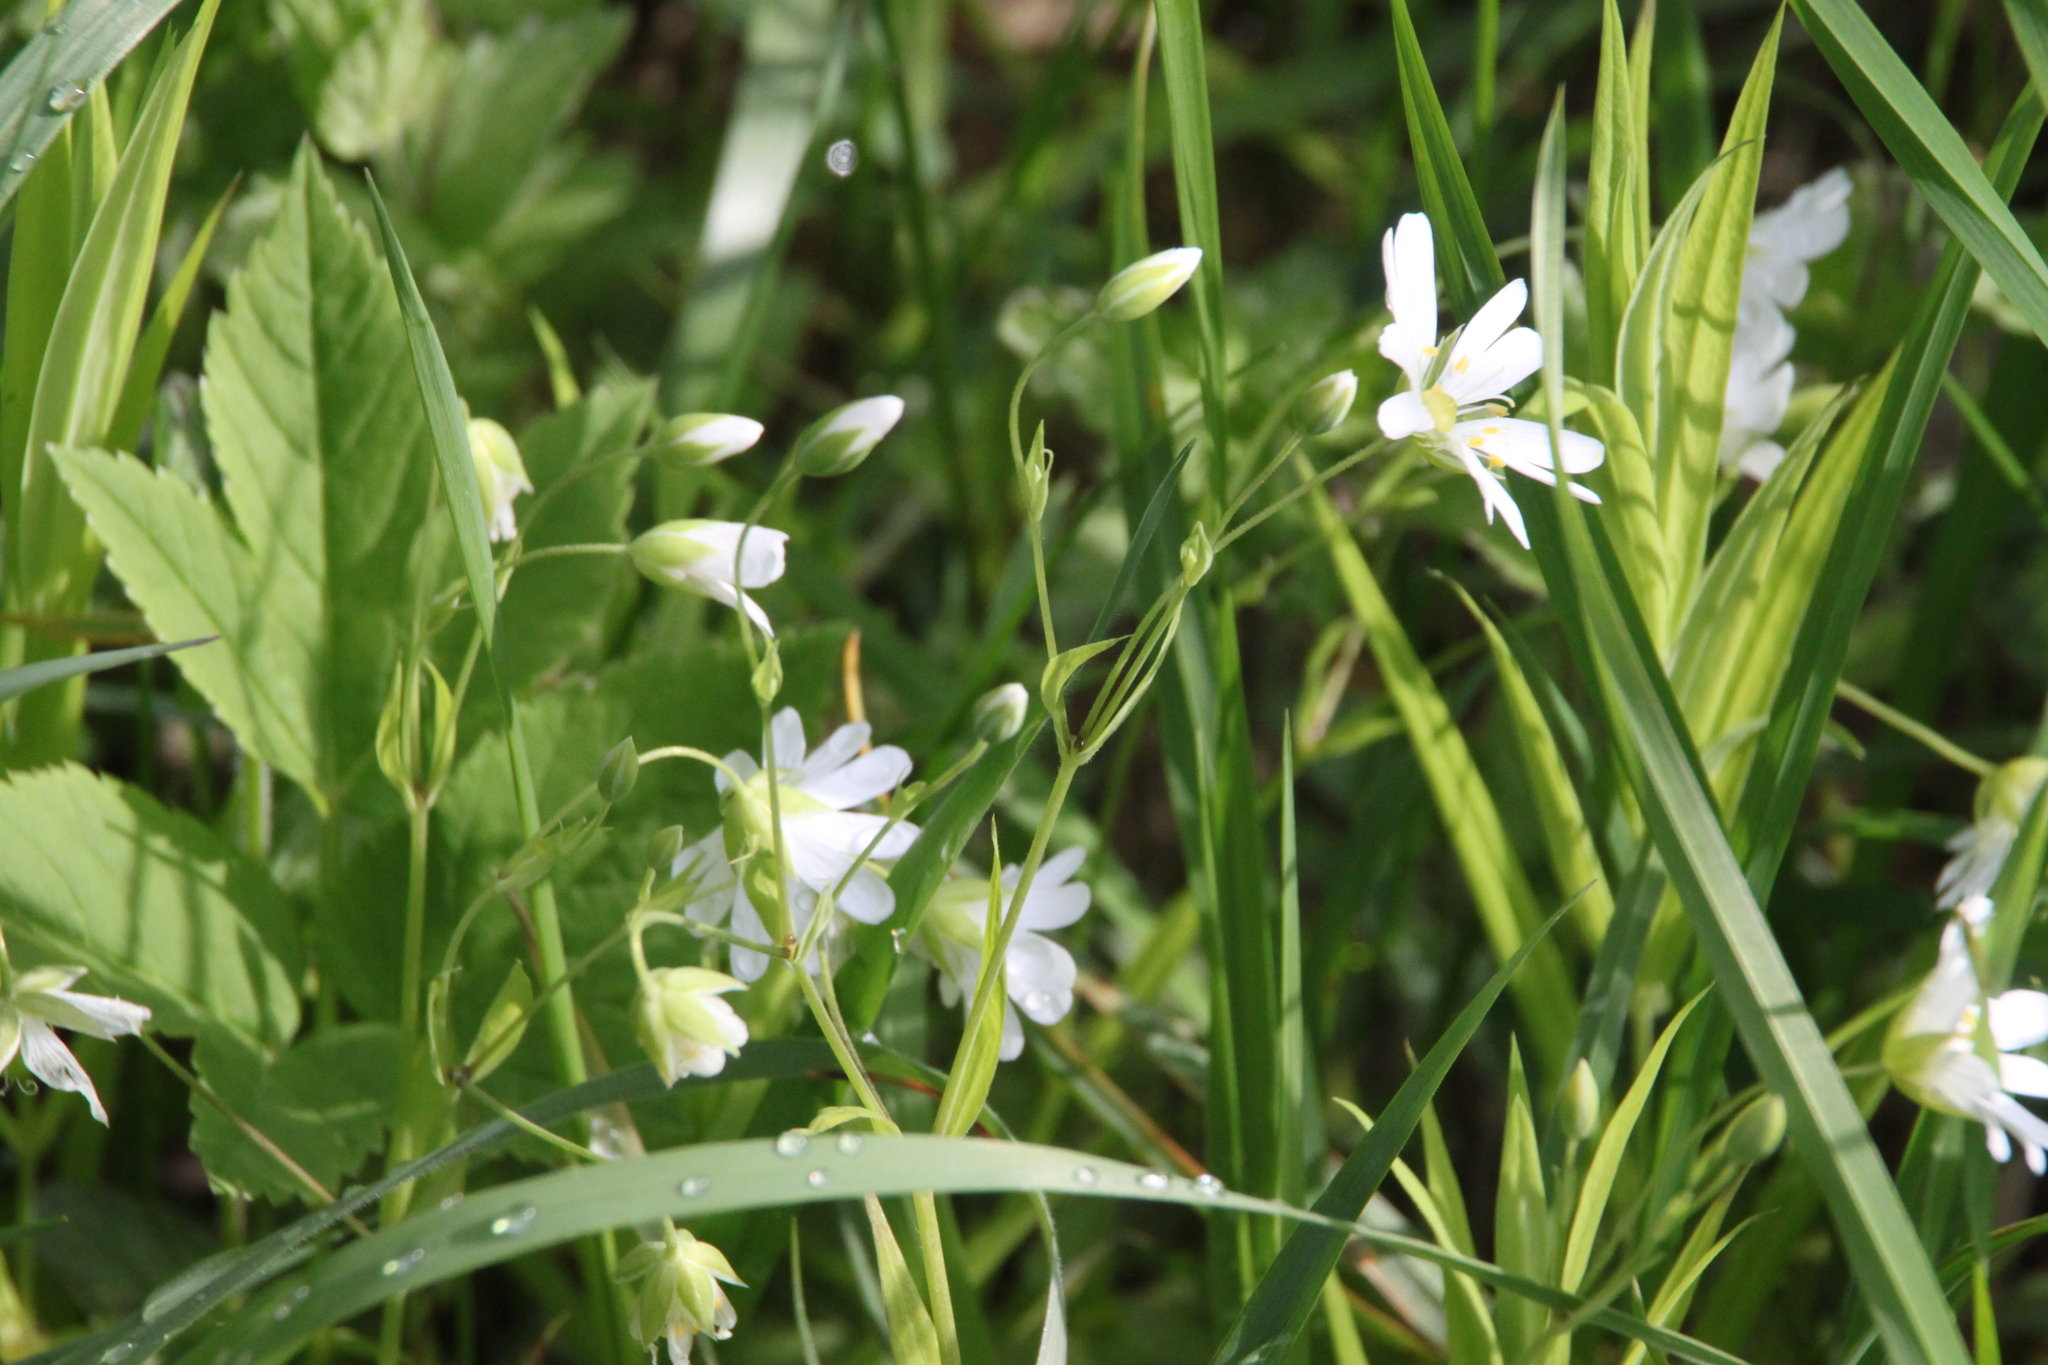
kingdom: Plantae
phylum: Tracheophyta
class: Magnoliopsida
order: Caryophyllales
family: Caryophyllaceae
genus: Rabelera
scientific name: Rabelera holostea
